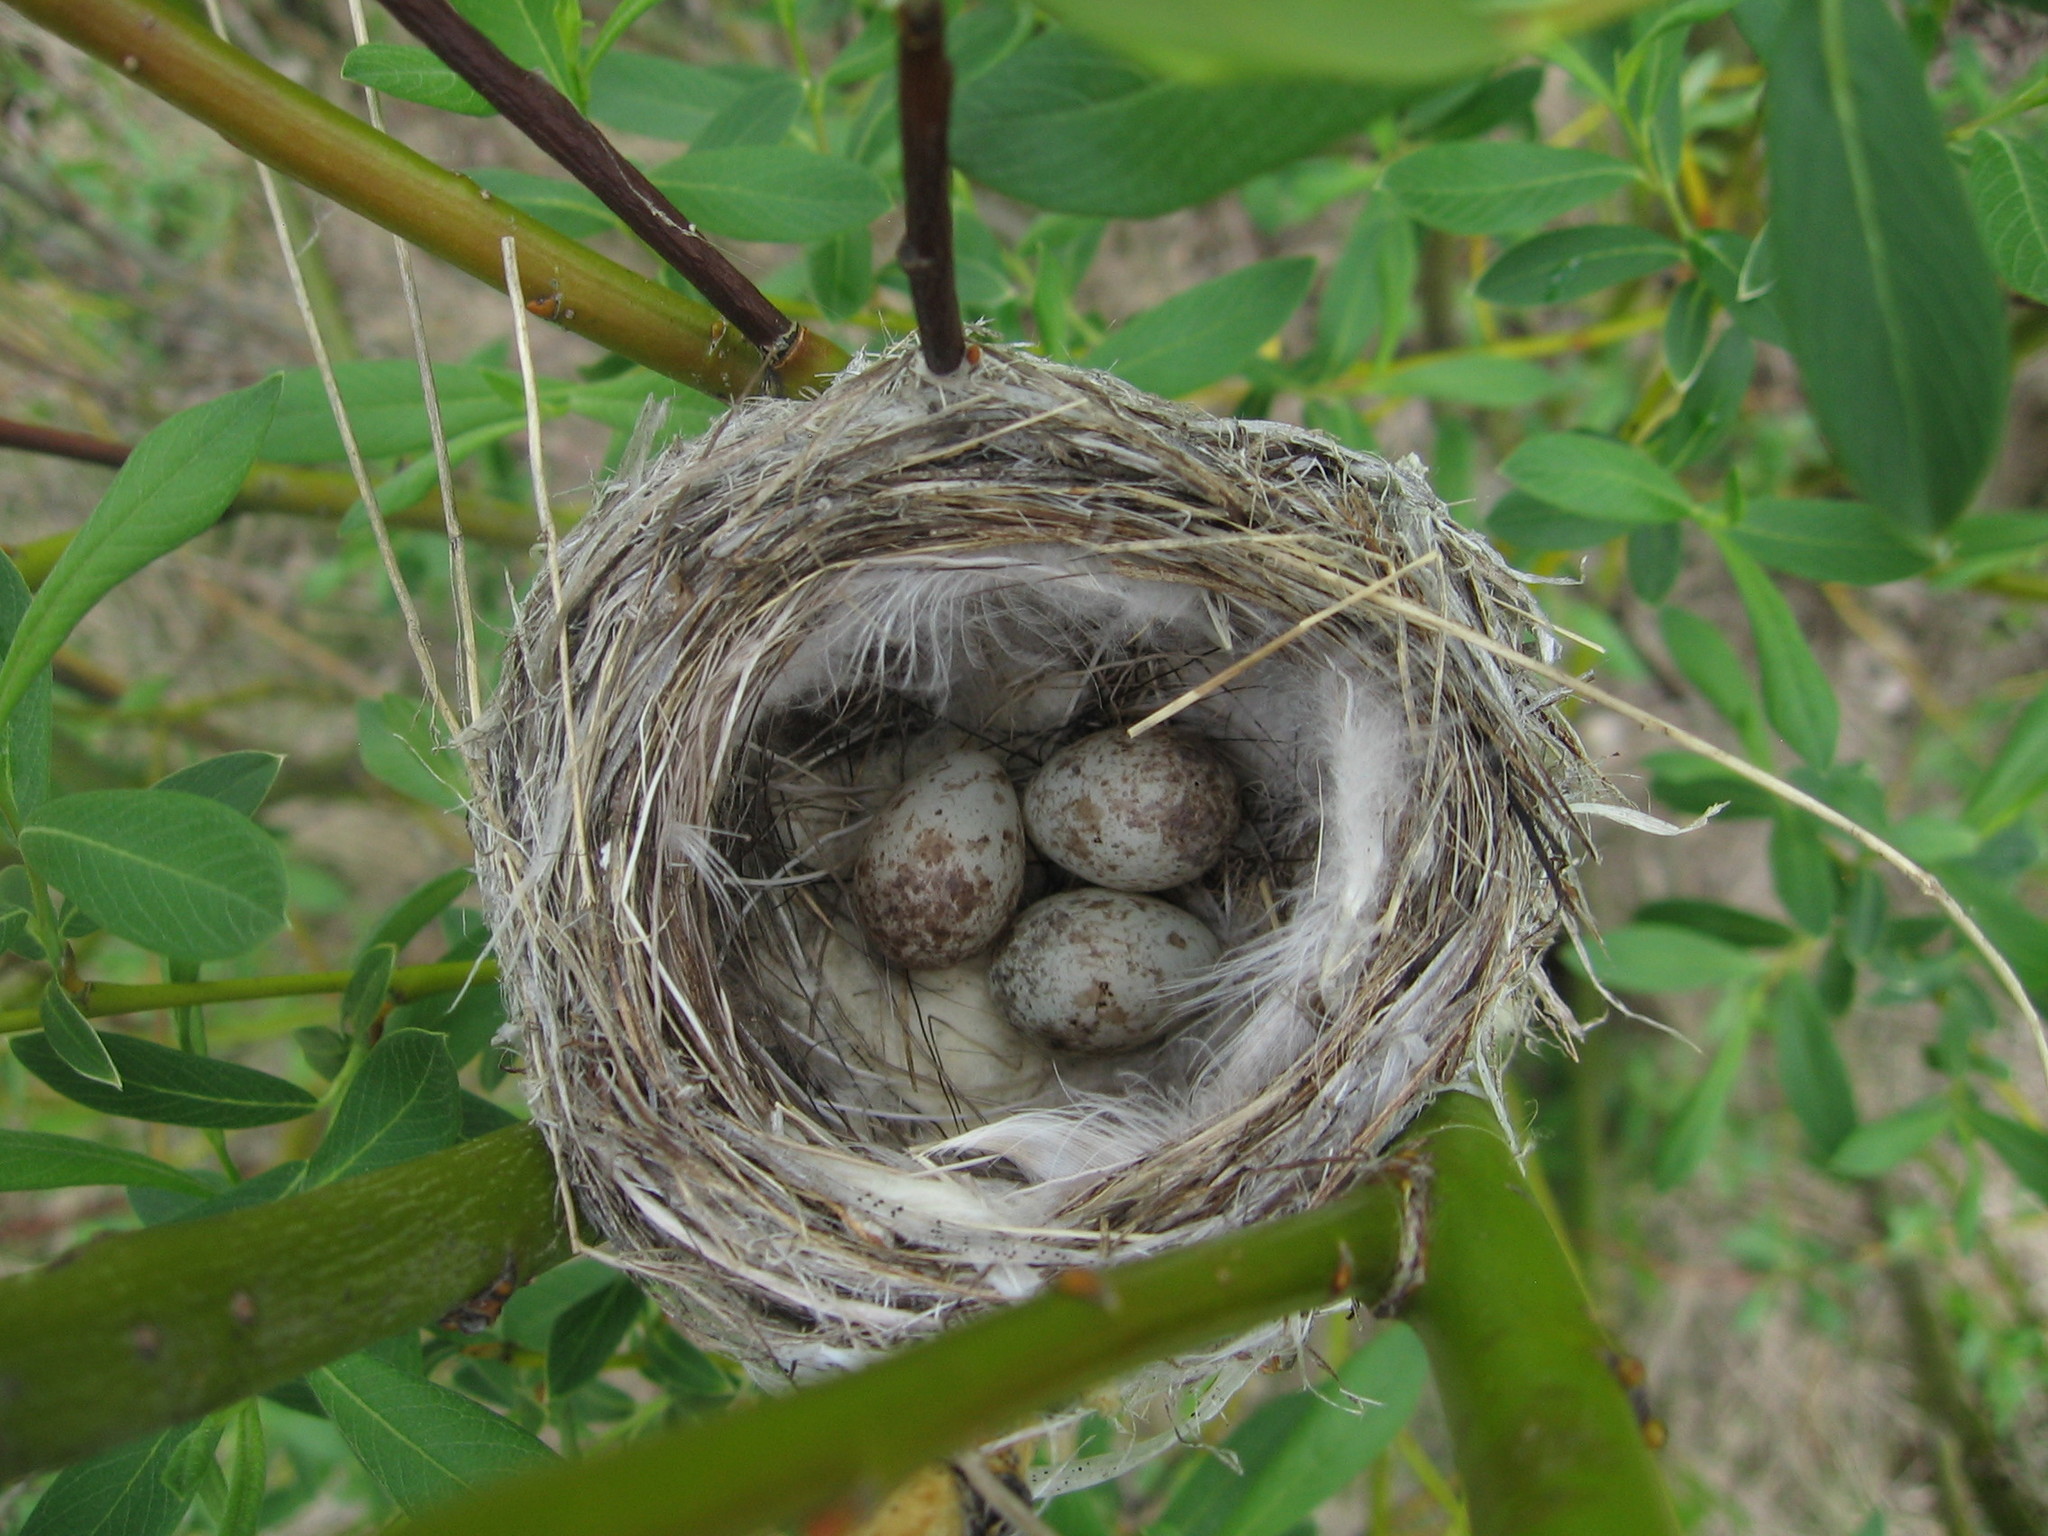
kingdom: Animalia
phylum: Chordata
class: Aves
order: Passeriformes
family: Parulidae
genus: Setophaga
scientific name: Setophaga petechia
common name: Yellow warbler
